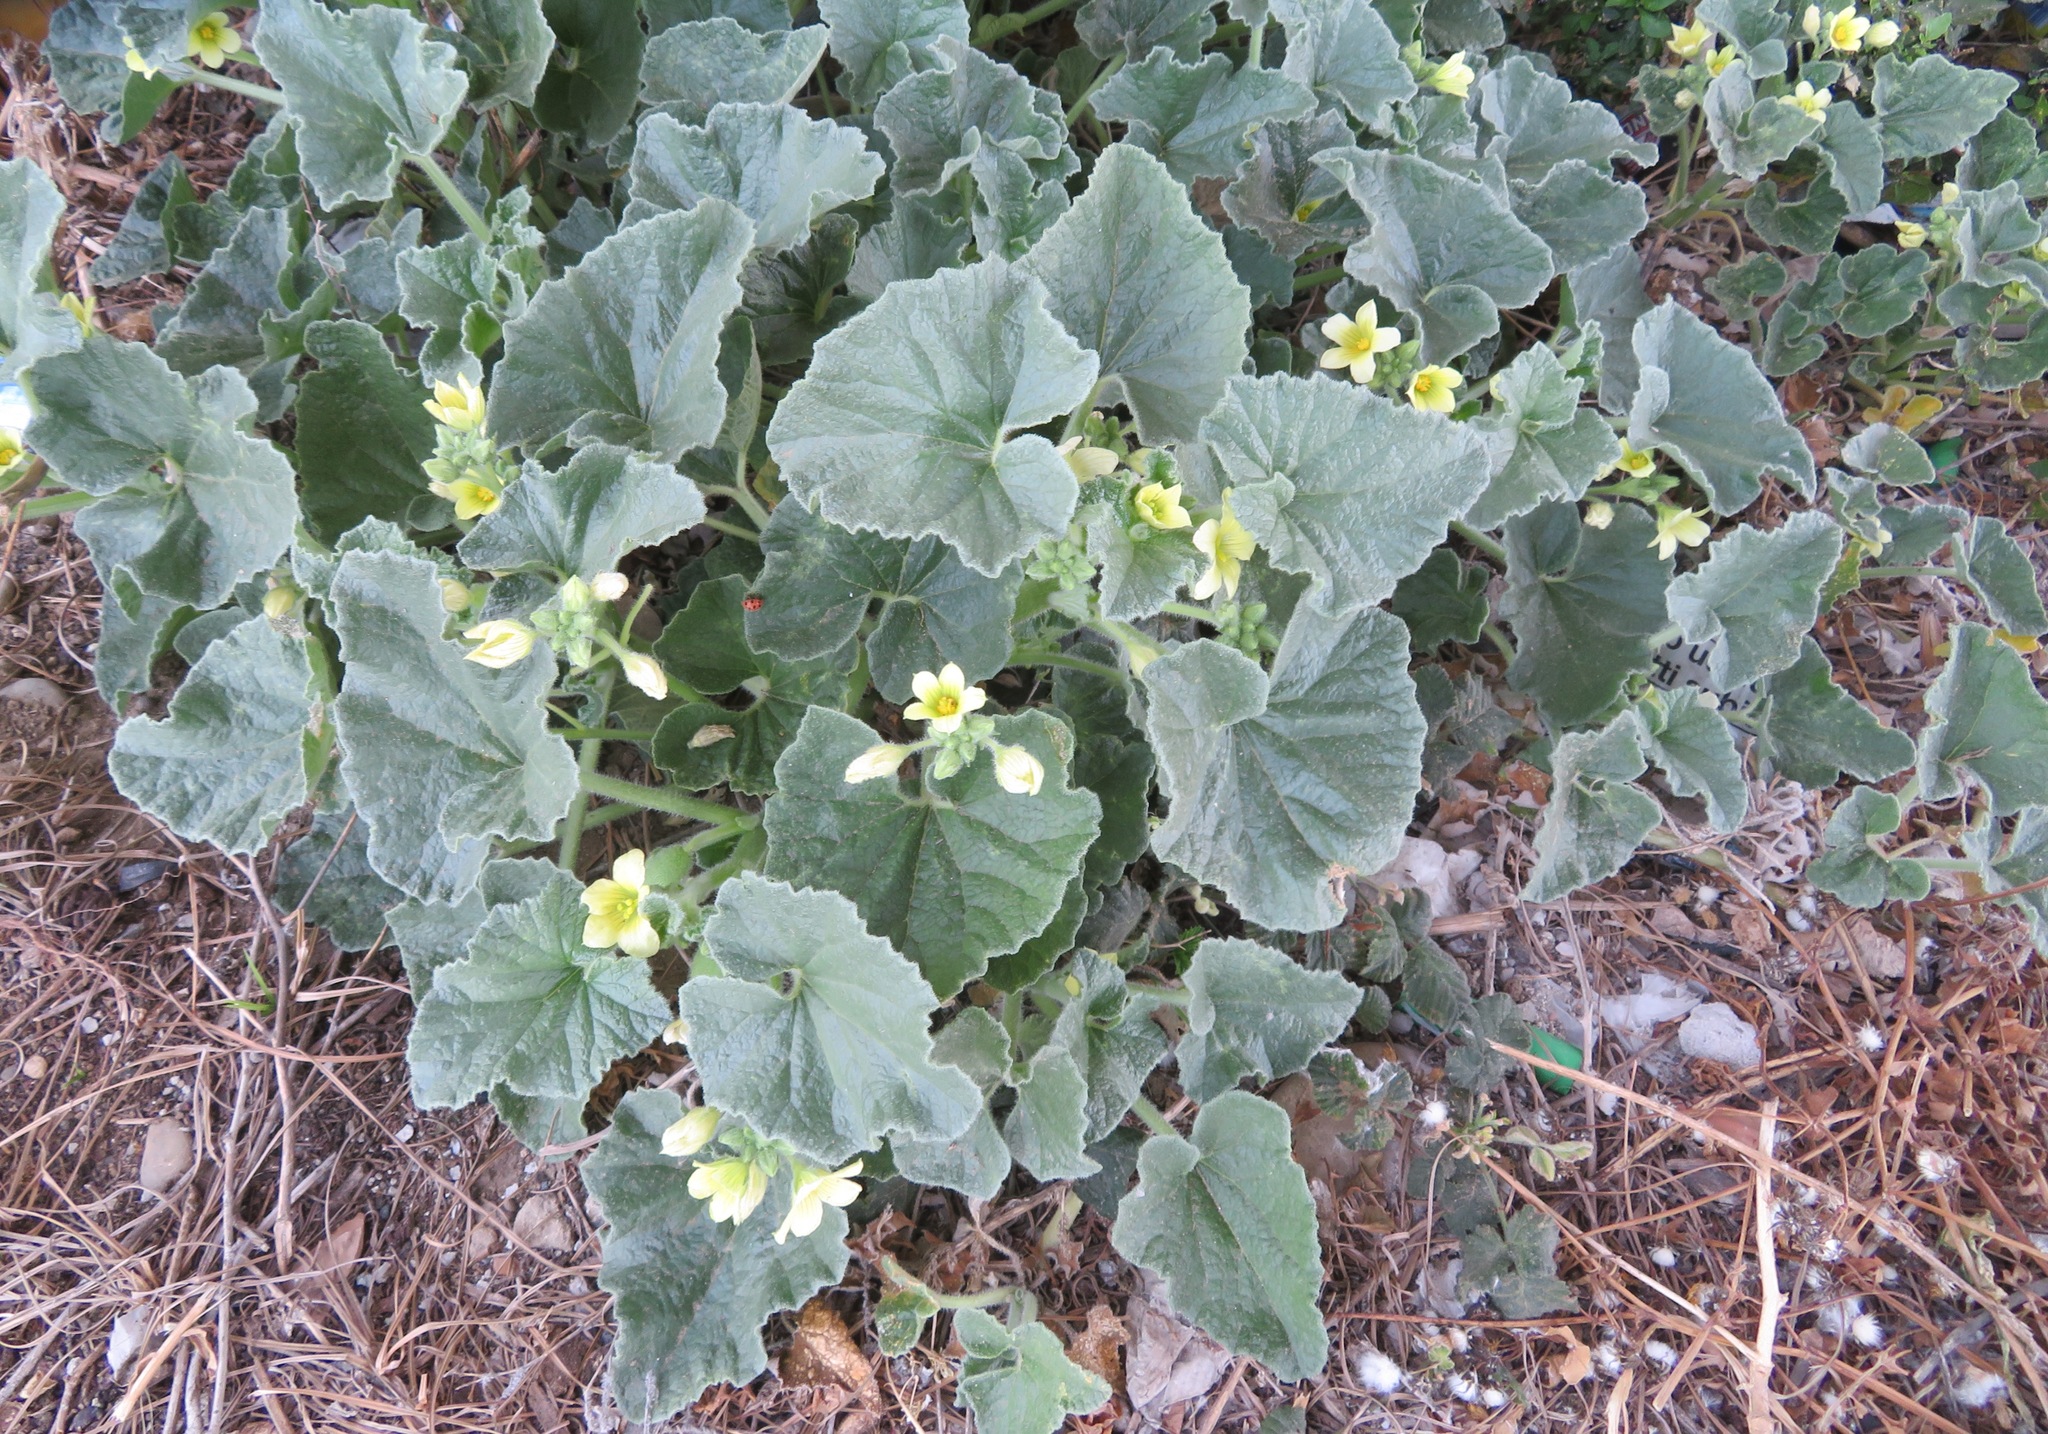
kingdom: Plantae
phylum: Tracheophyta
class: Magnoliopsida
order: Cucurbitales
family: Cucurbitaceae
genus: Ecballium
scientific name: Ecballium elaterium
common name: Squirting cucumber
